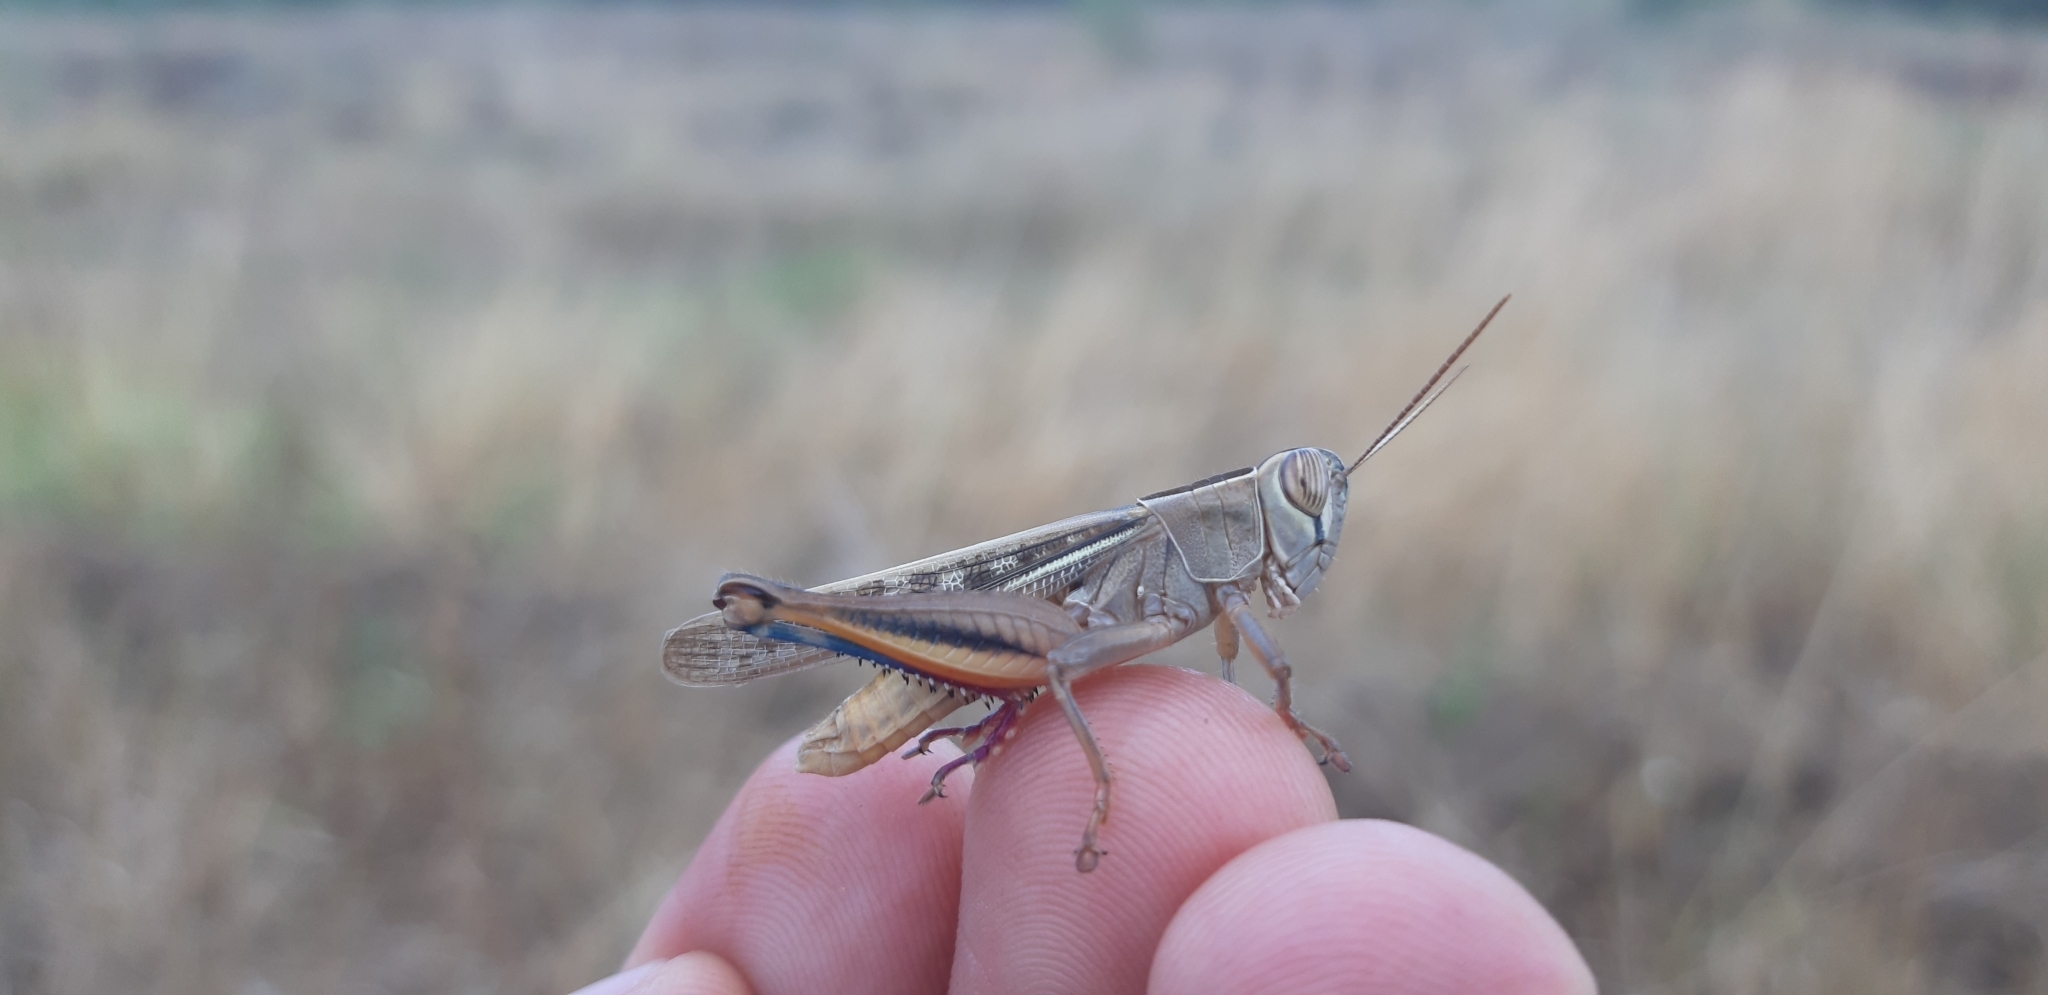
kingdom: Animalia
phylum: Arthropoda
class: Insecta
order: Orthoptera
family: Acrididae
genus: Eyprepocnemis
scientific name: Eyprepocnemis plorans
